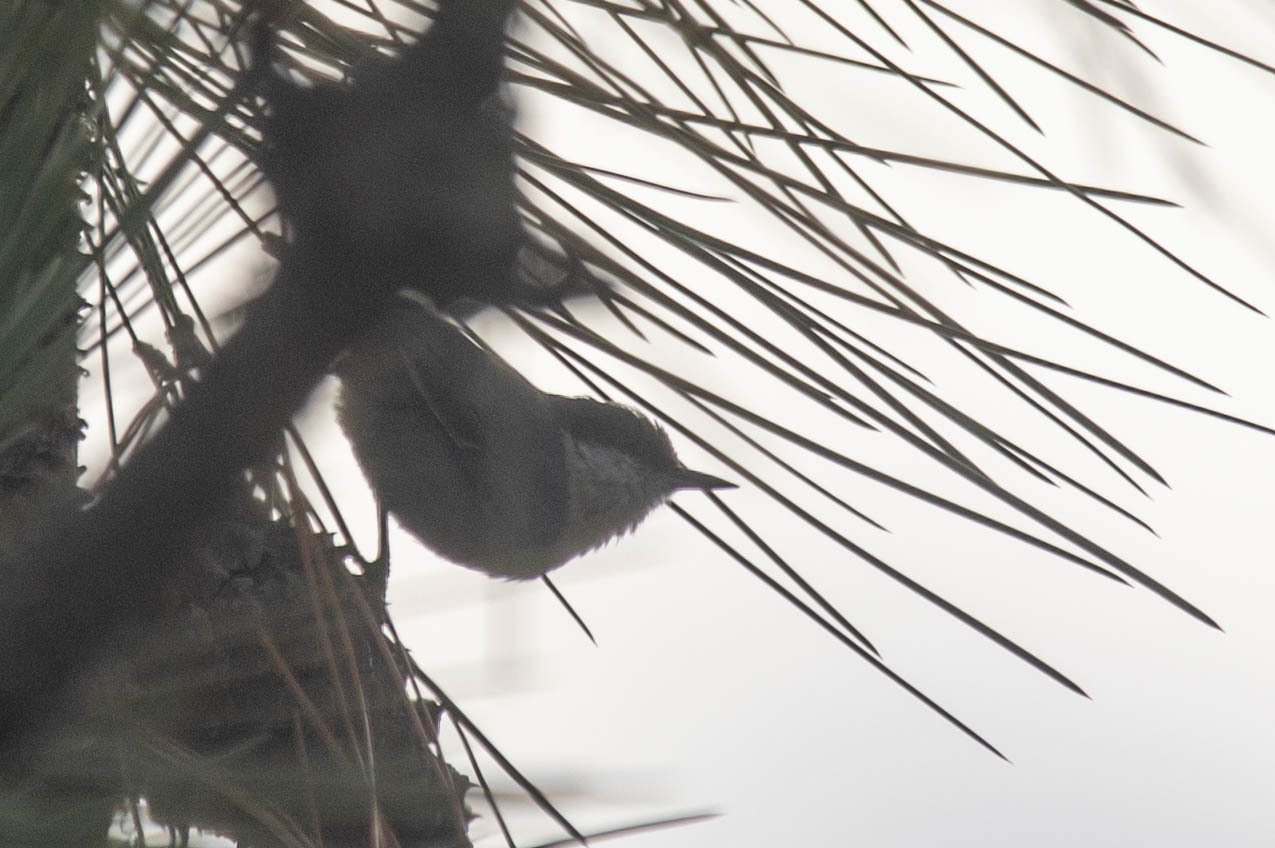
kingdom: Animalia
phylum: Chordata
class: Aves
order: Passeriformes
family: Sittidae
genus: Sitta
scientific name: Sitta pygmaea
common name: Pygmy nuthatch
